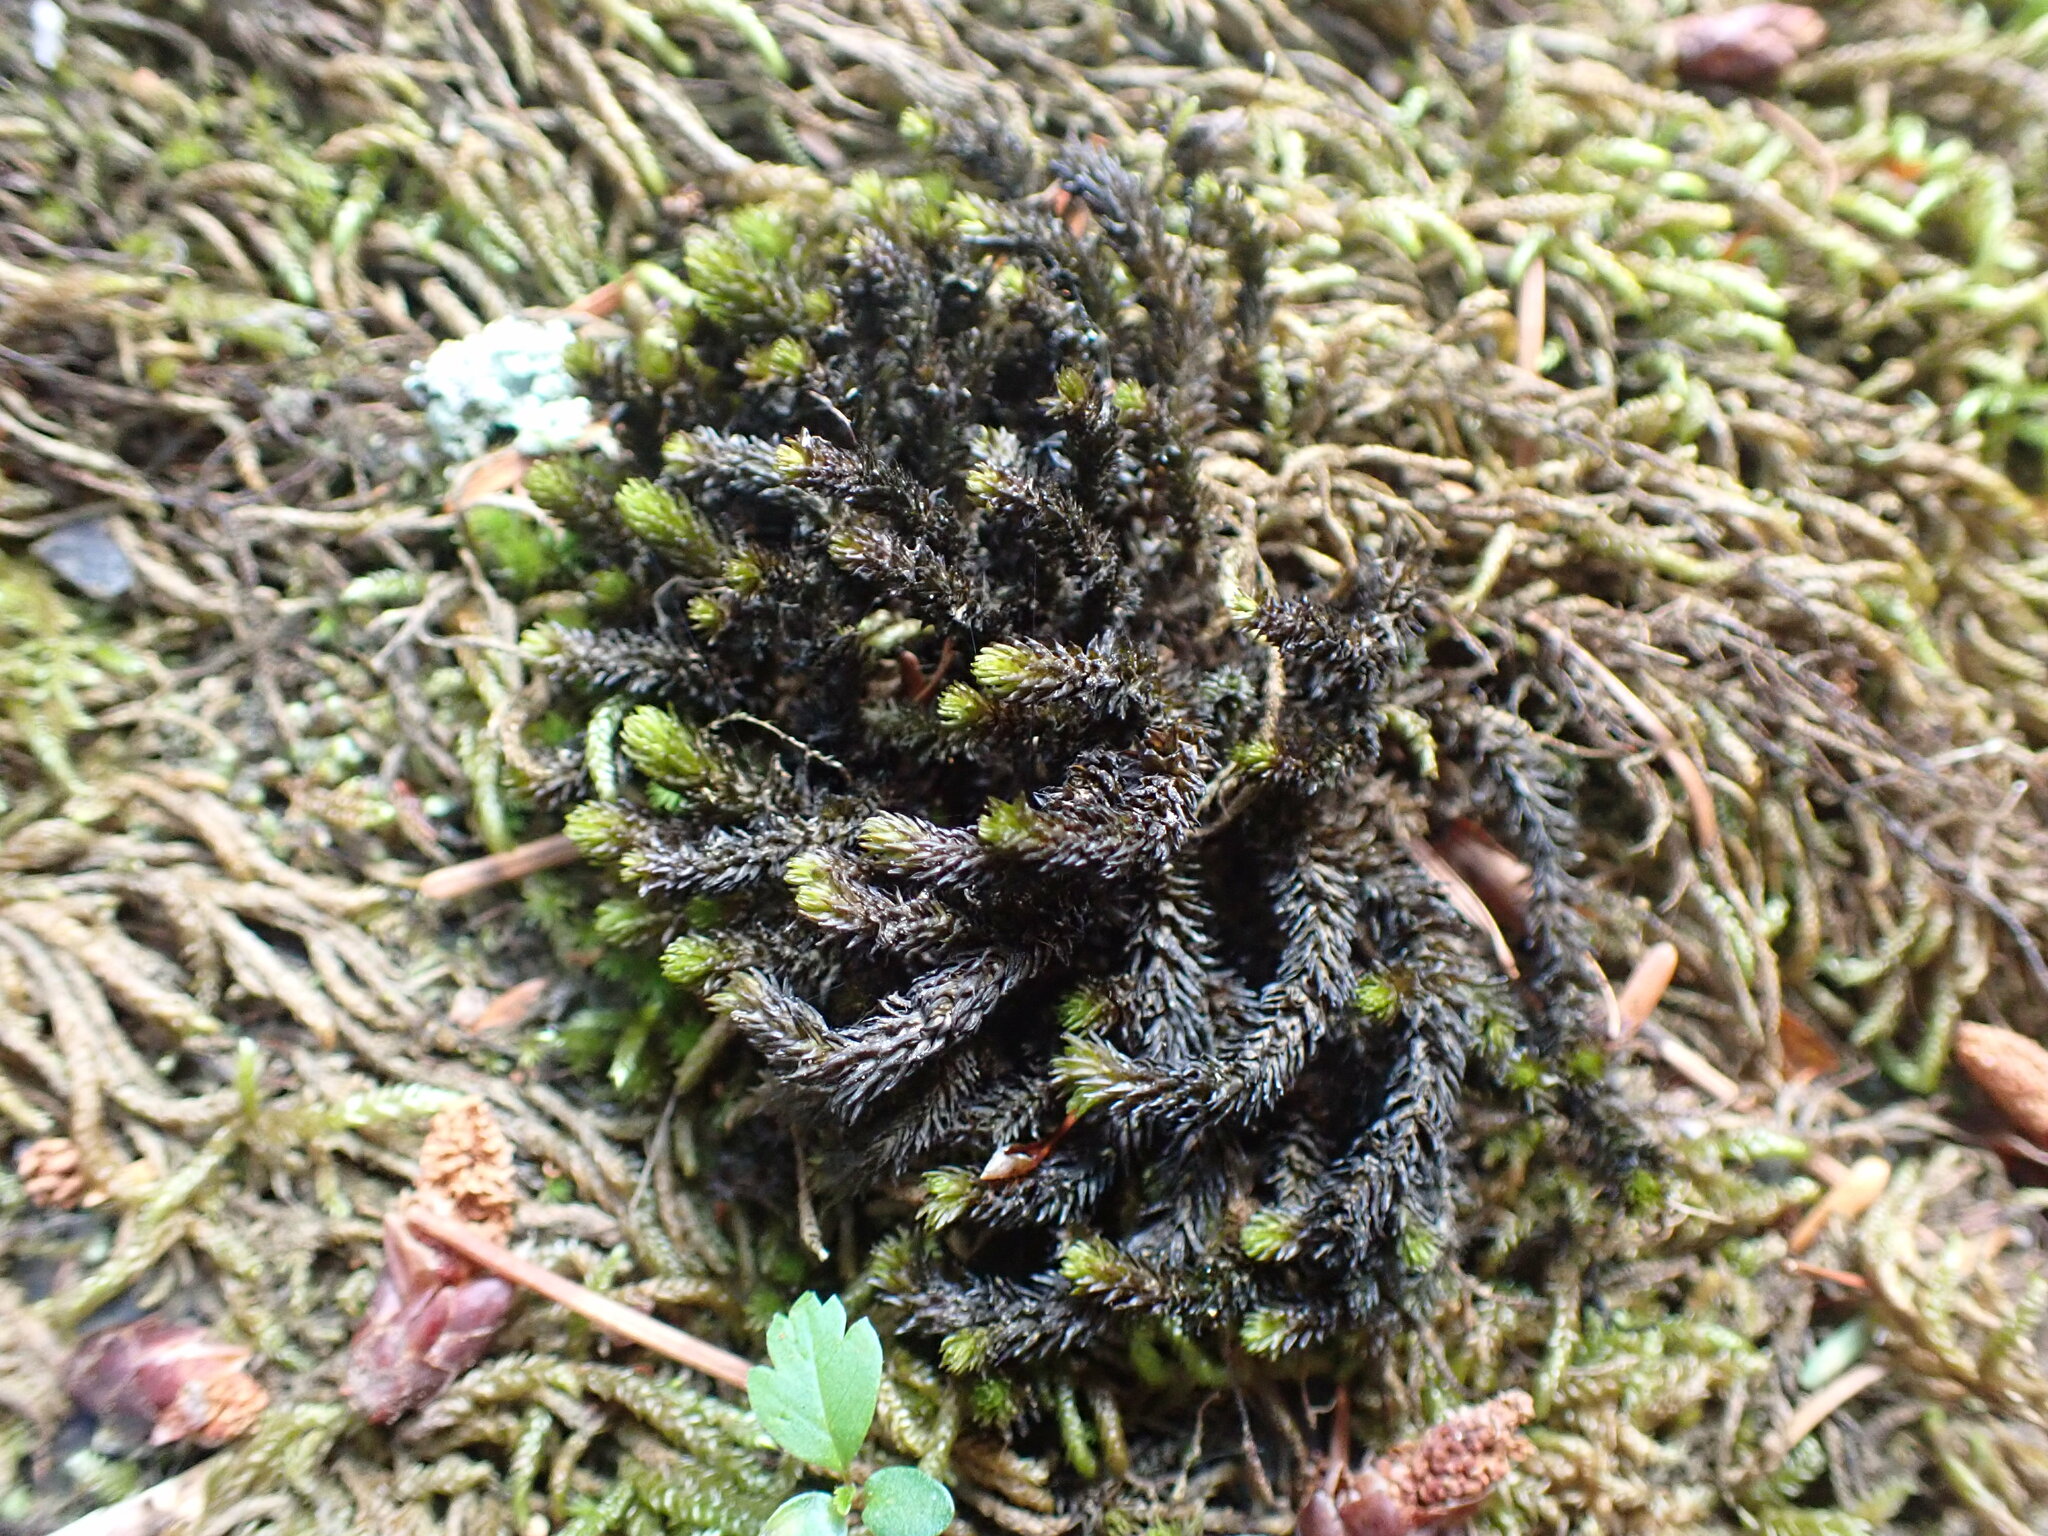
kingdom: Plantae
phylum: Bryophyta
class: Bryopsida
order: Scouleriales
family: Scouleriaceae
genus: Scouleria
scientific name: Scouleria aquatica
